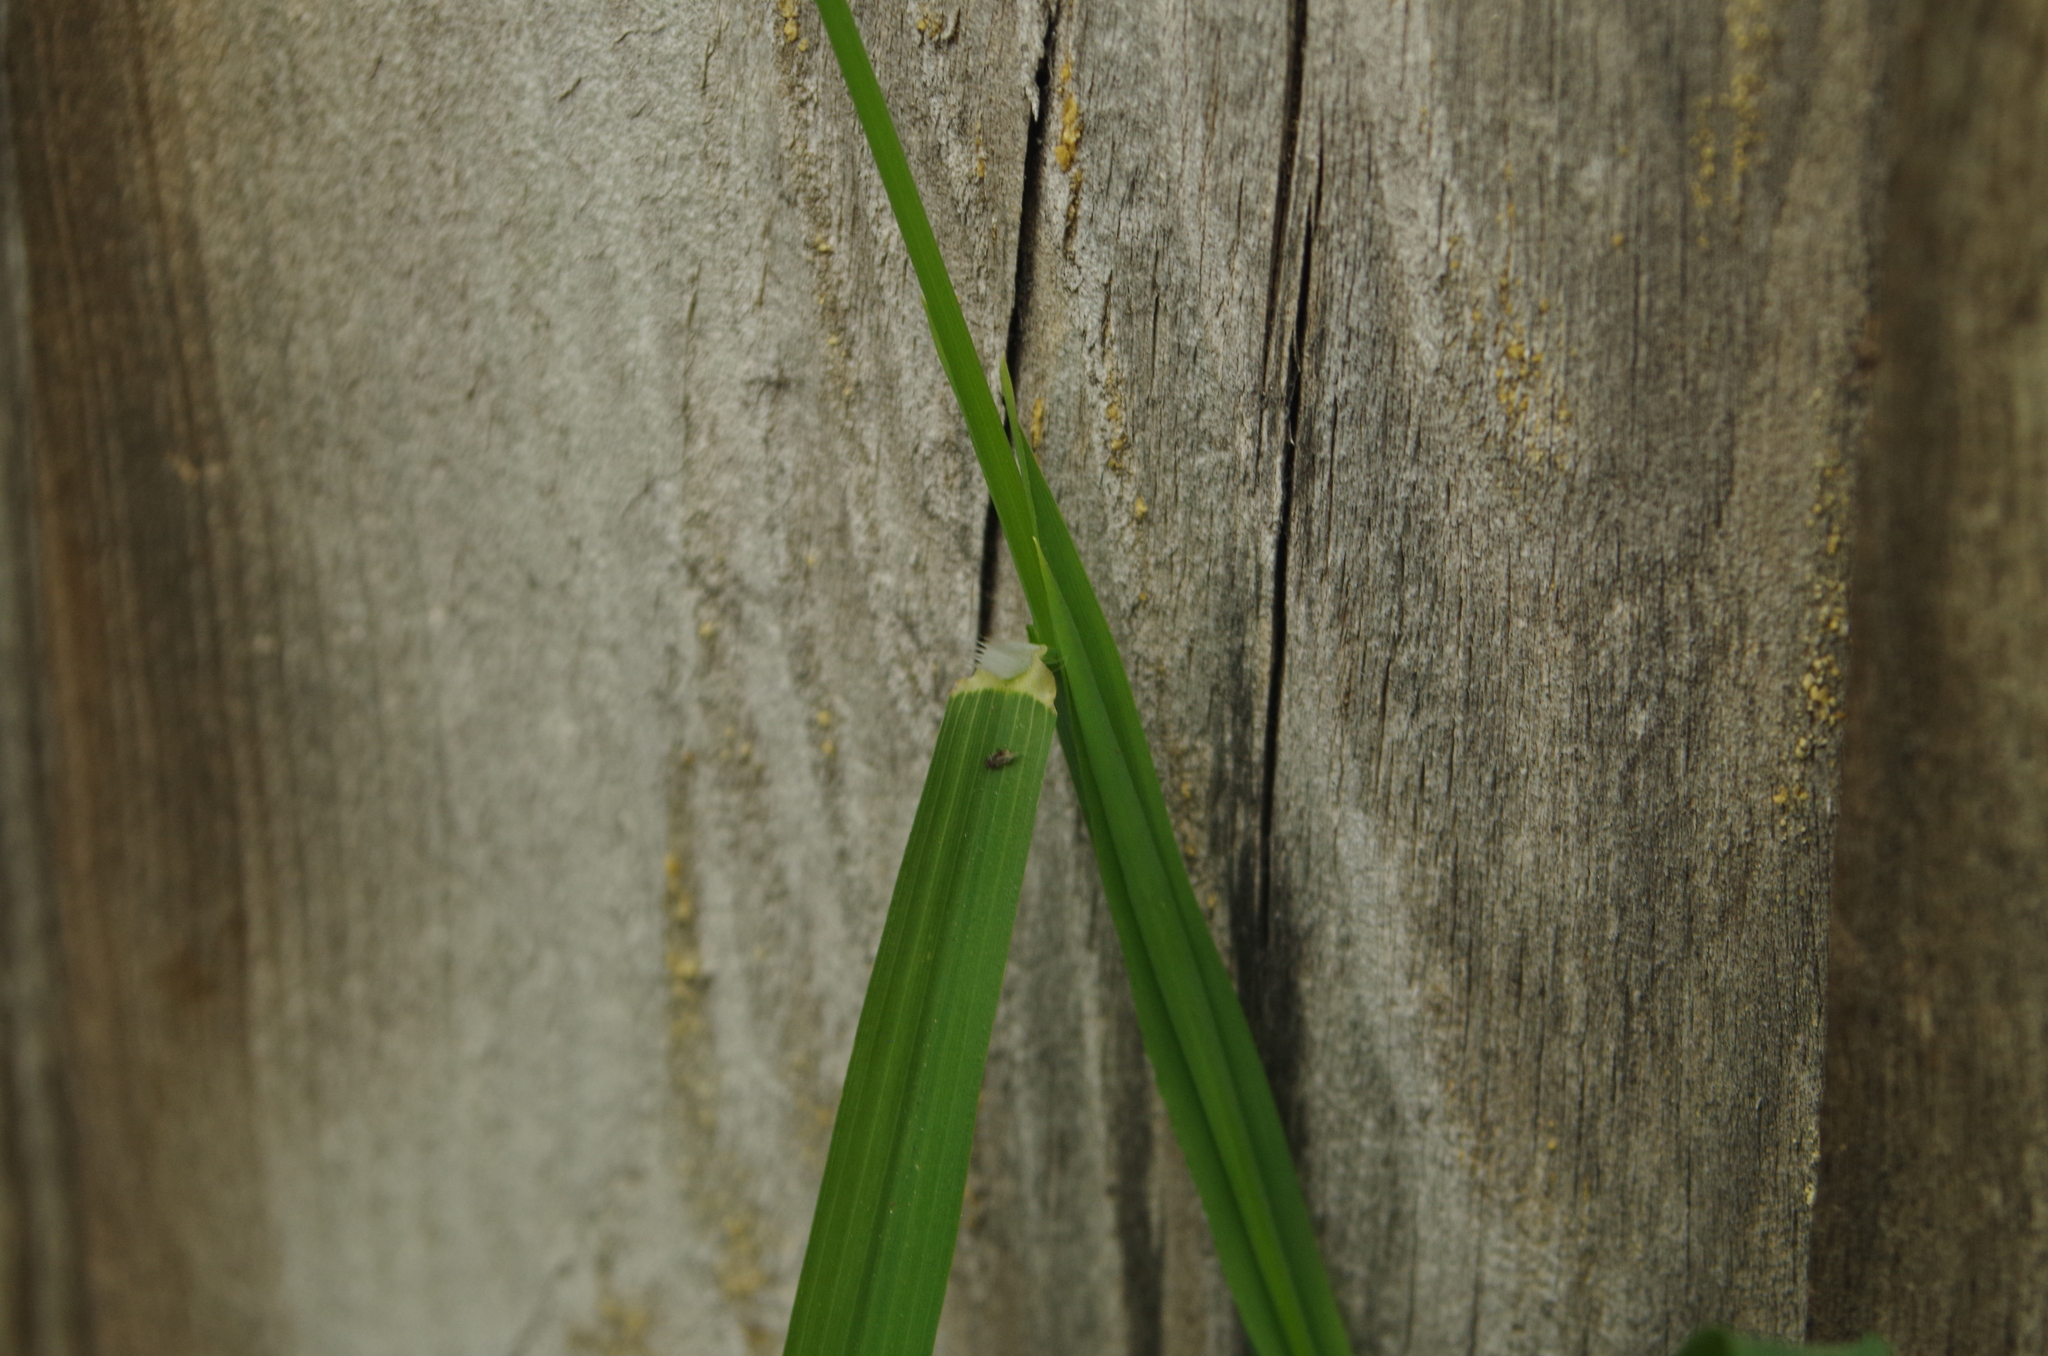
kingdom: Plantae
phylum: Tracheophyta
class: Liliopsida
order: Poales
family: Poaceae
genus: Ehrharta
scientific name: Ehrharta erecta
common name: Panic veldtgrass
